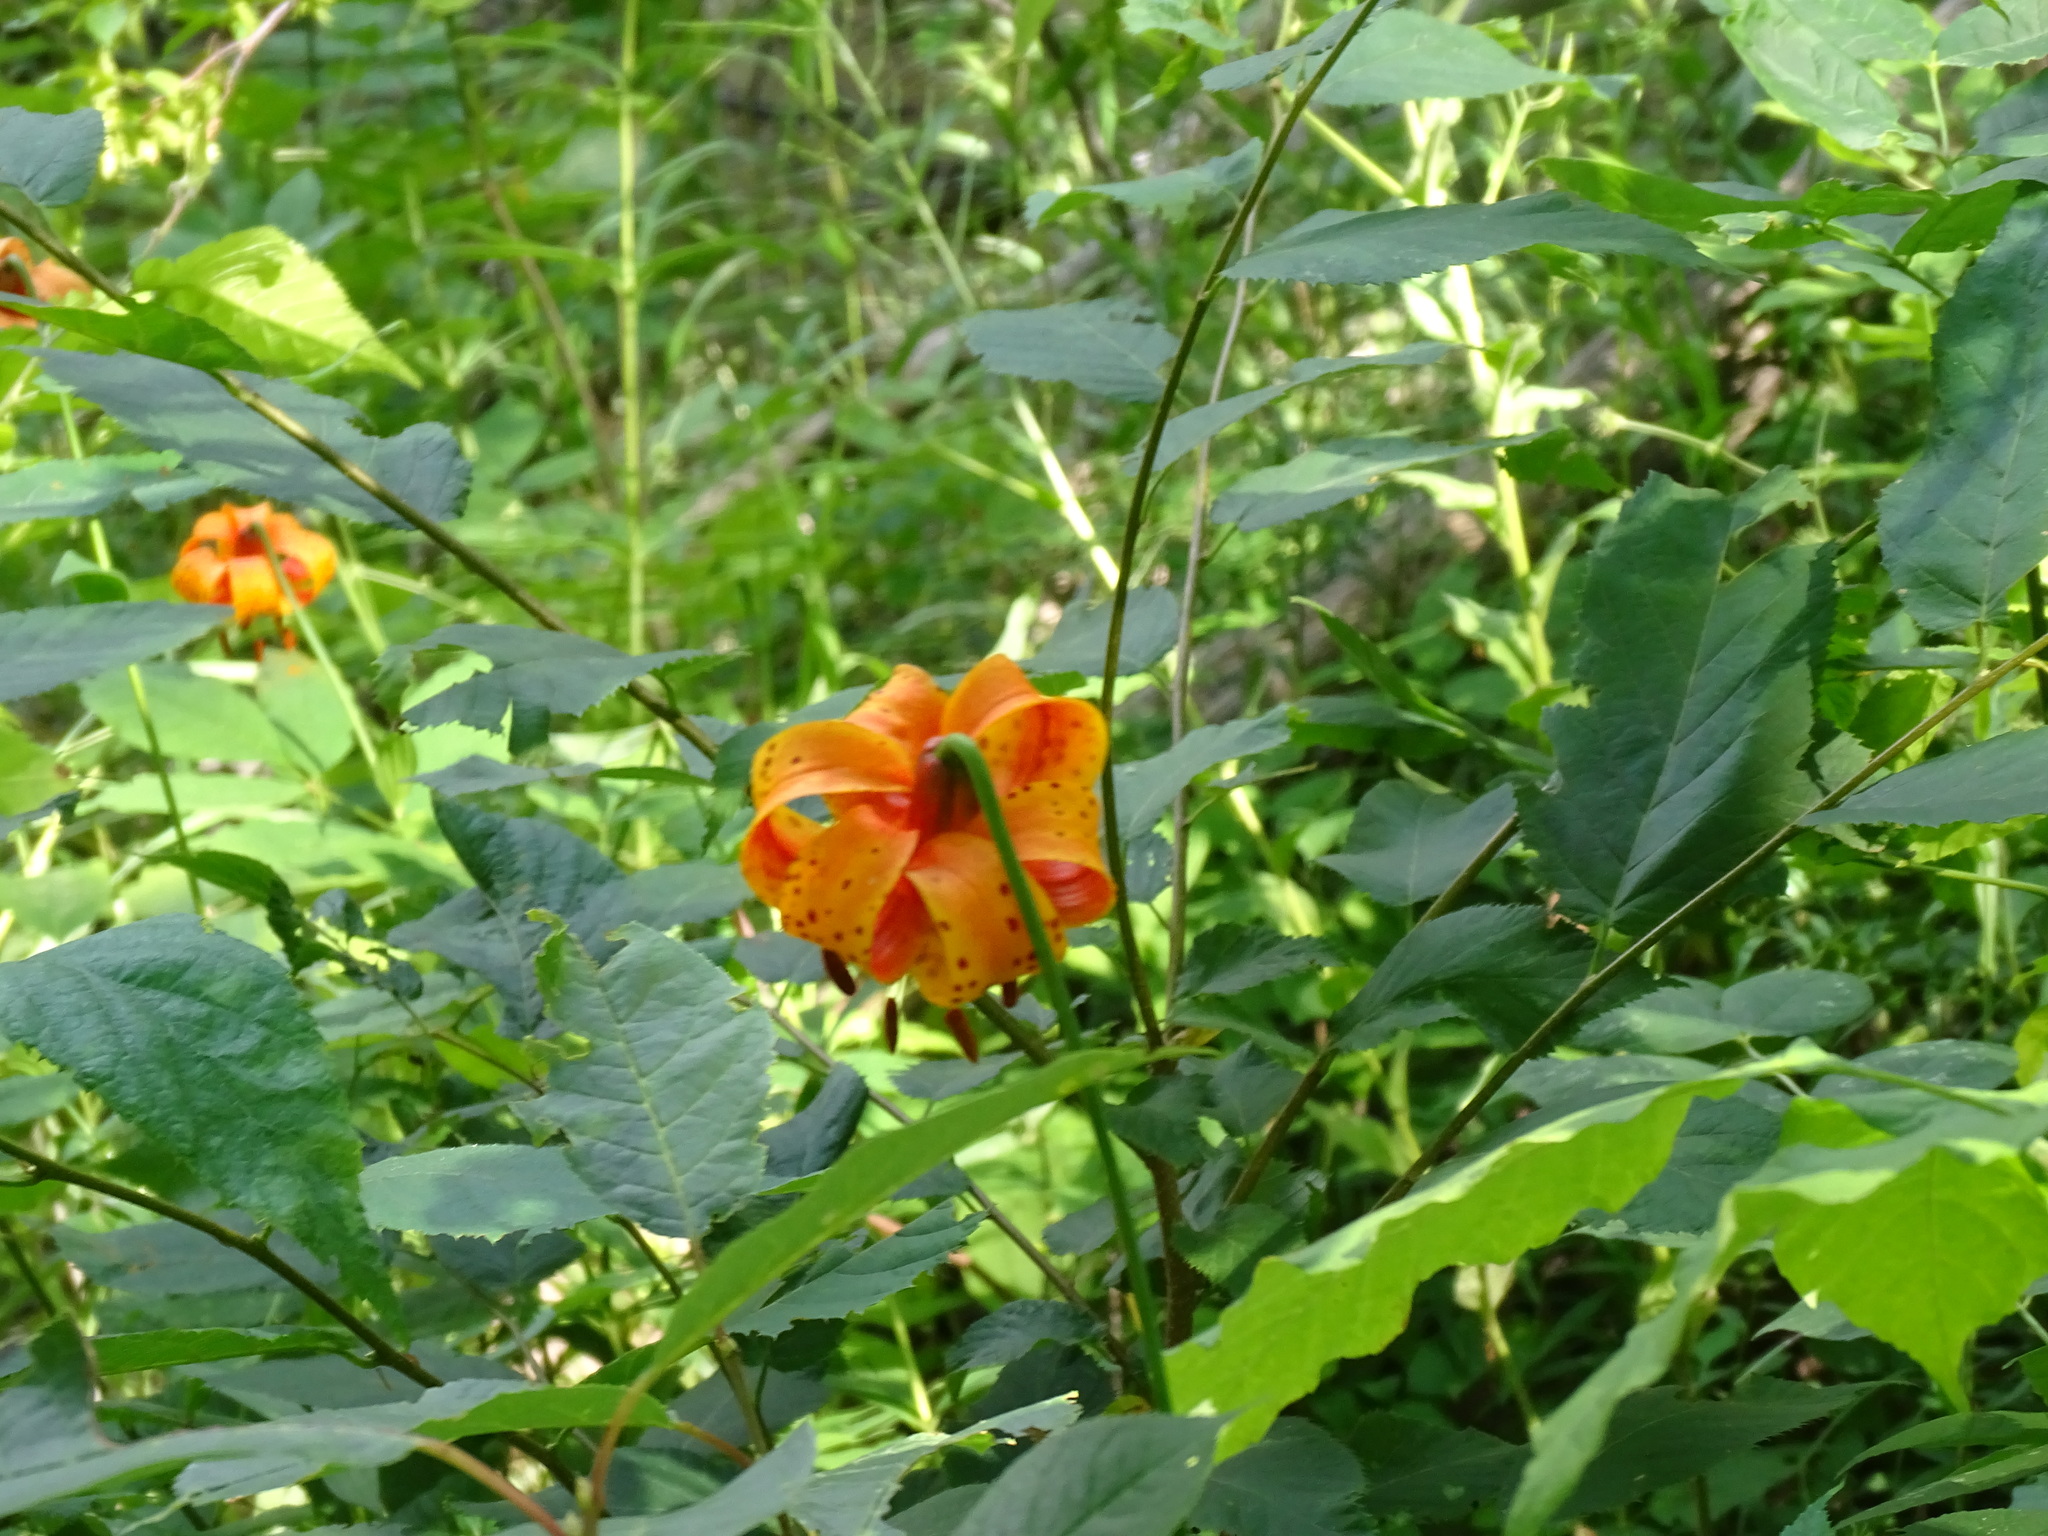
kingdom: Plantae
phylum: Tracheophyta
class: Liliopsida
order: Liliales
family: Liliaceae
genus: Lilium
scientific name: Lilium michiganense
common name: Michigan lily
